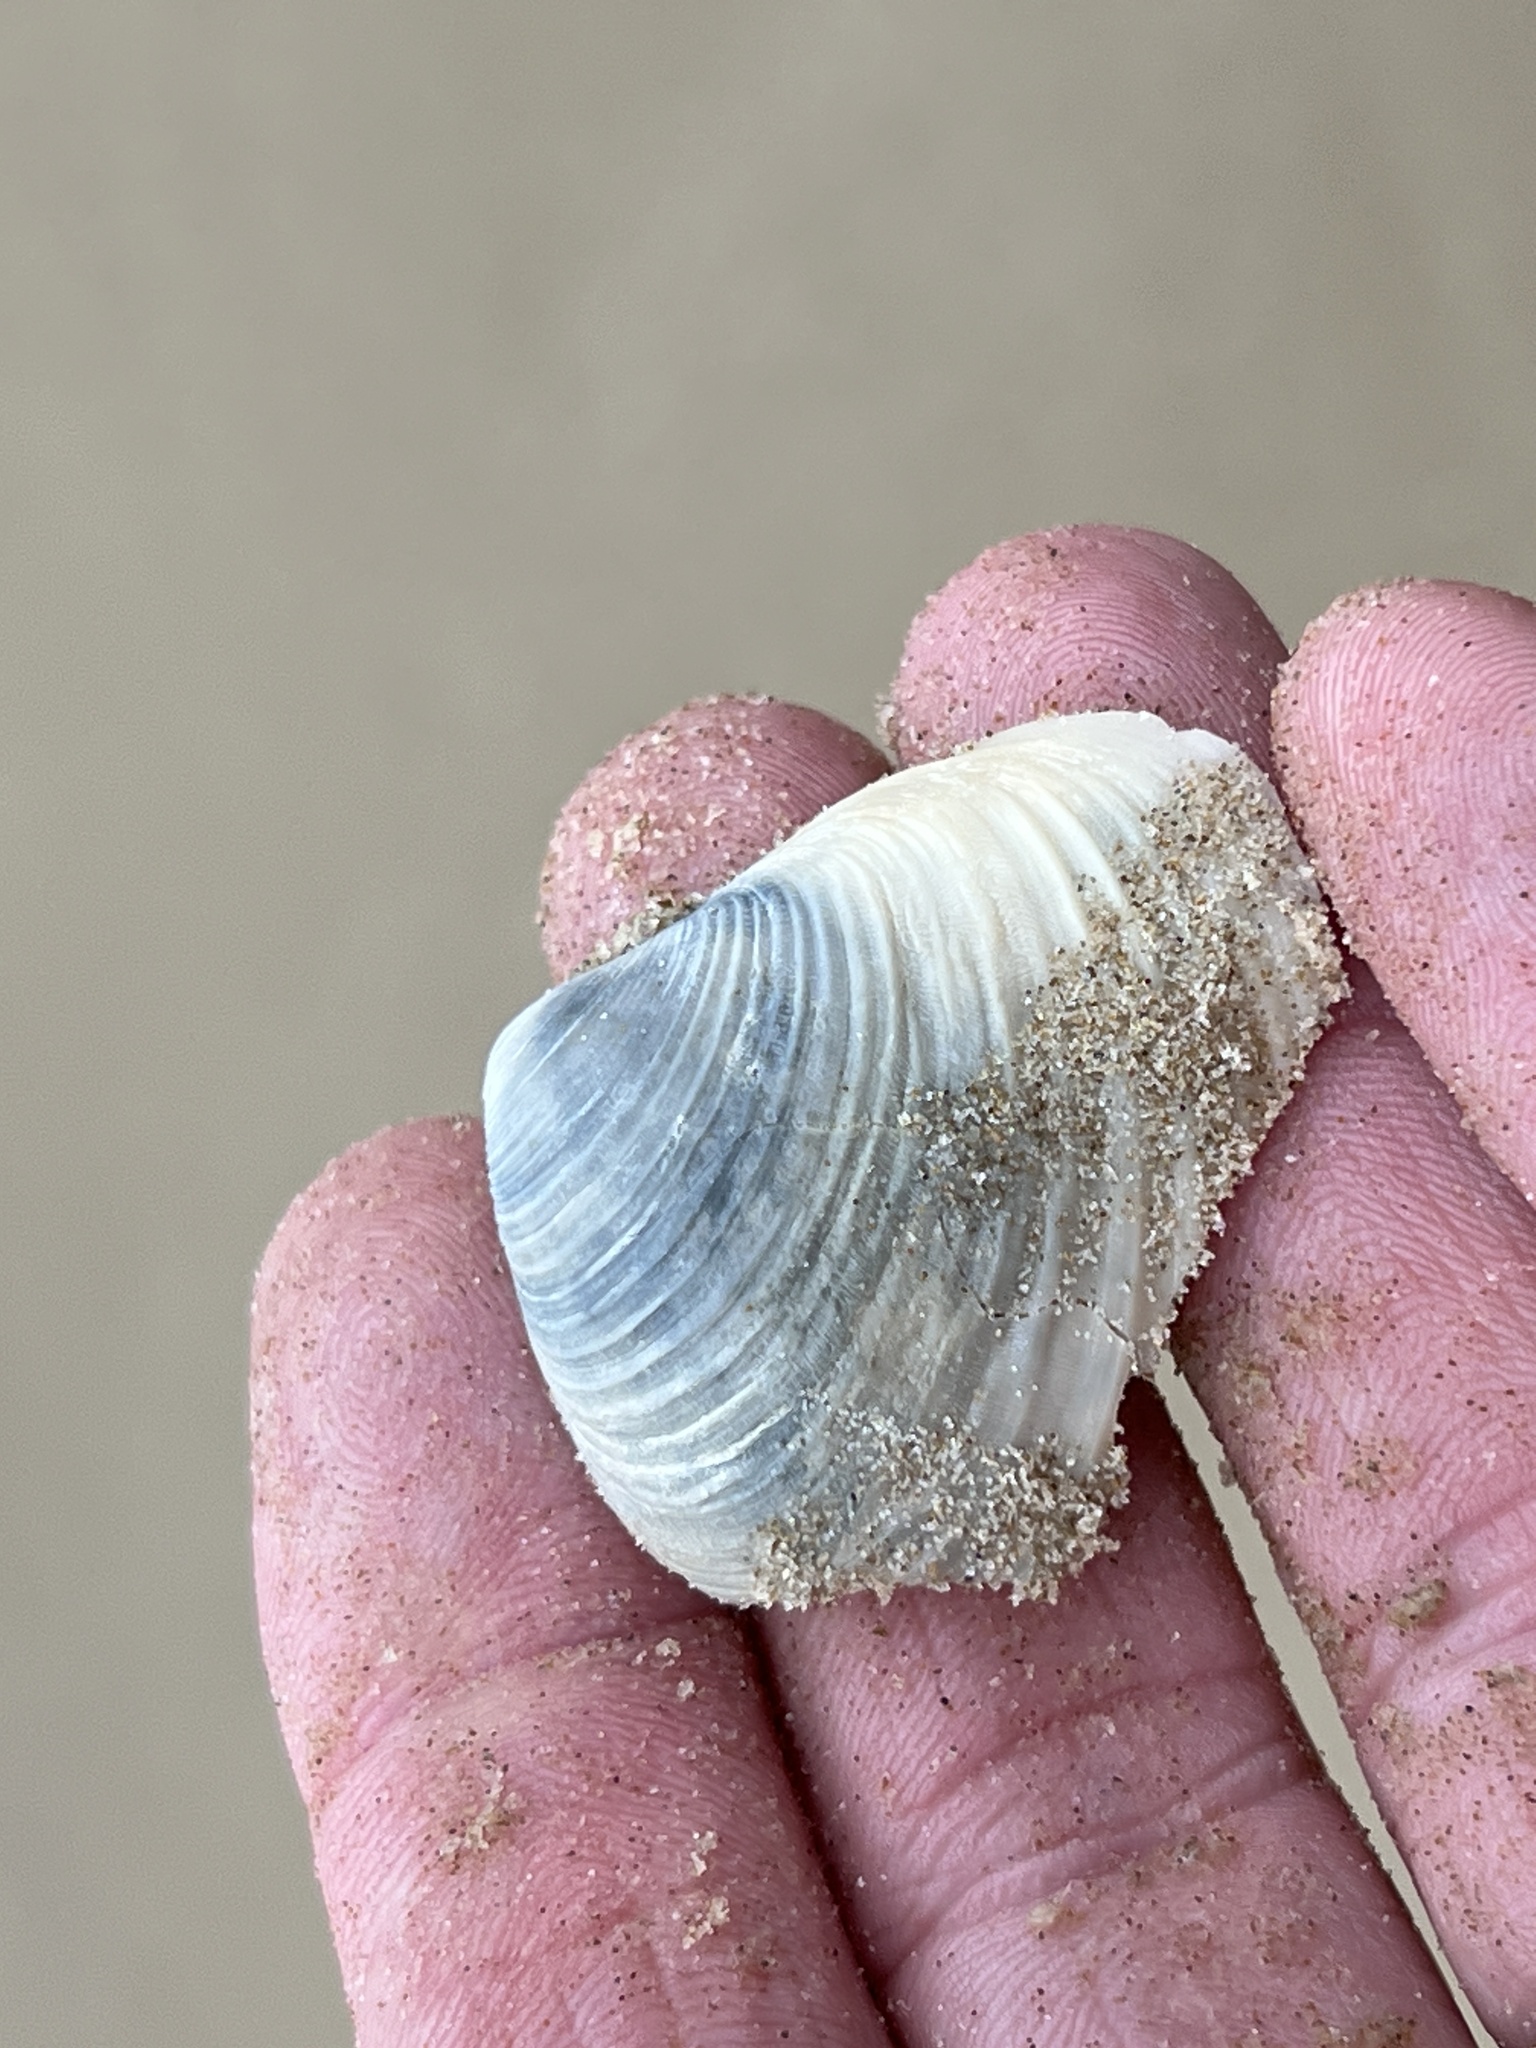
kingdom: Animalia
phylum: Mollusca
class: Bivalvia
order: Venerida
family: Anatinellidae
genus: Raeta
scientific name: Raeta plicatella
